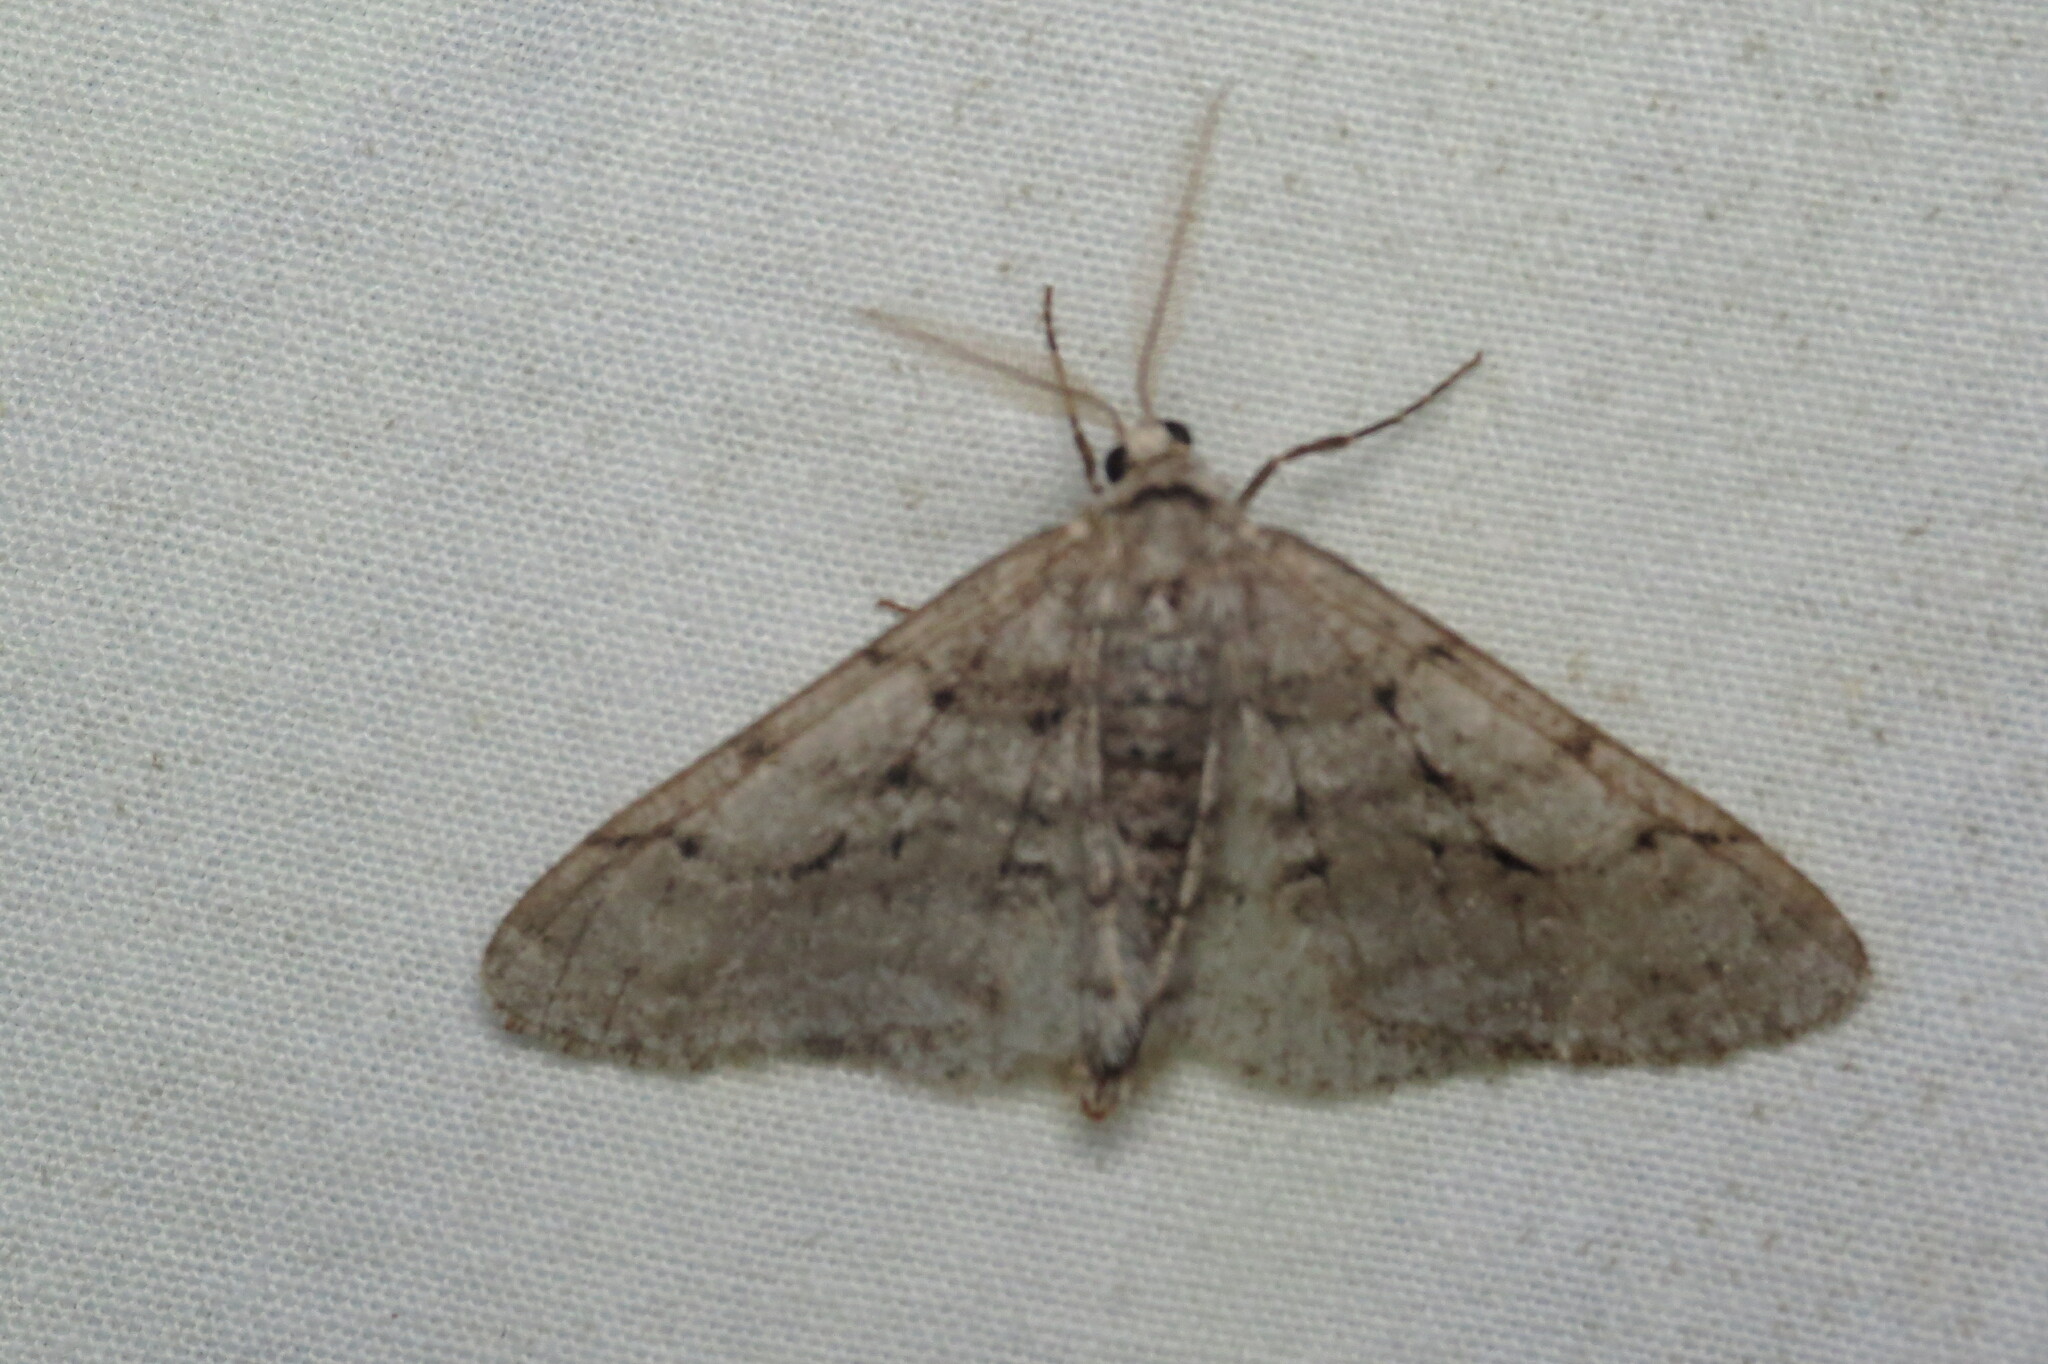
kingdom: Animalia
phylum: Arthropoda
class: Insecta
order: Lepidoptera
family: Geometridae
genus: Phigalia
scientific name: Phigalia titea
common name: Spiny looper
